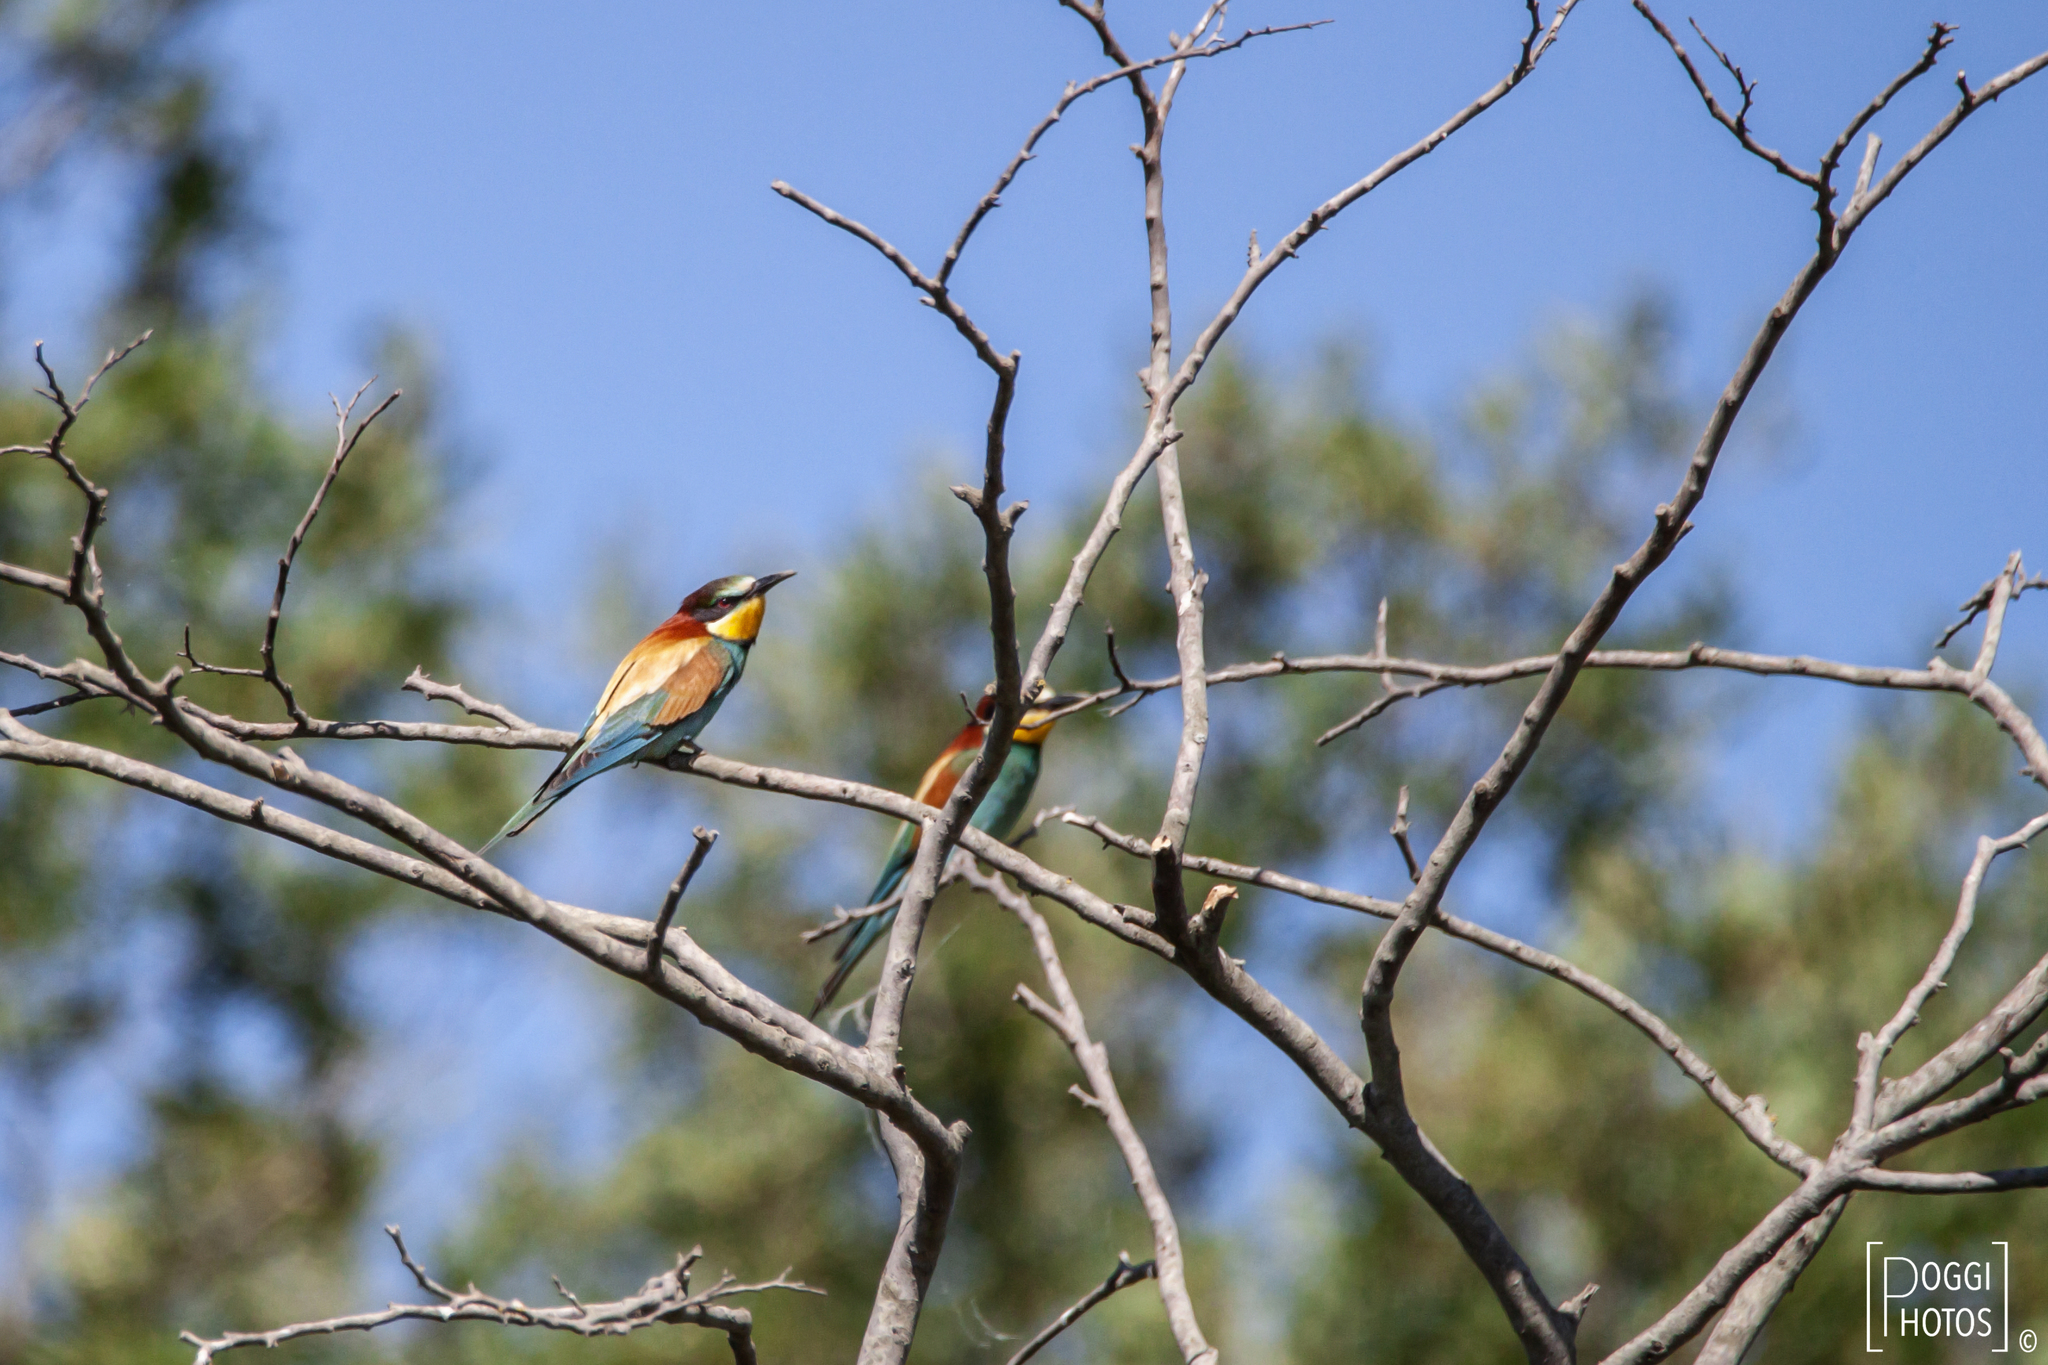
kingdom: Animalia
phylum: Chordata
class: Aves
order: Coraciiformes
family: Meropidae
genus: Merops
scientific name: Merops apiaster
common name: European bee-eater
